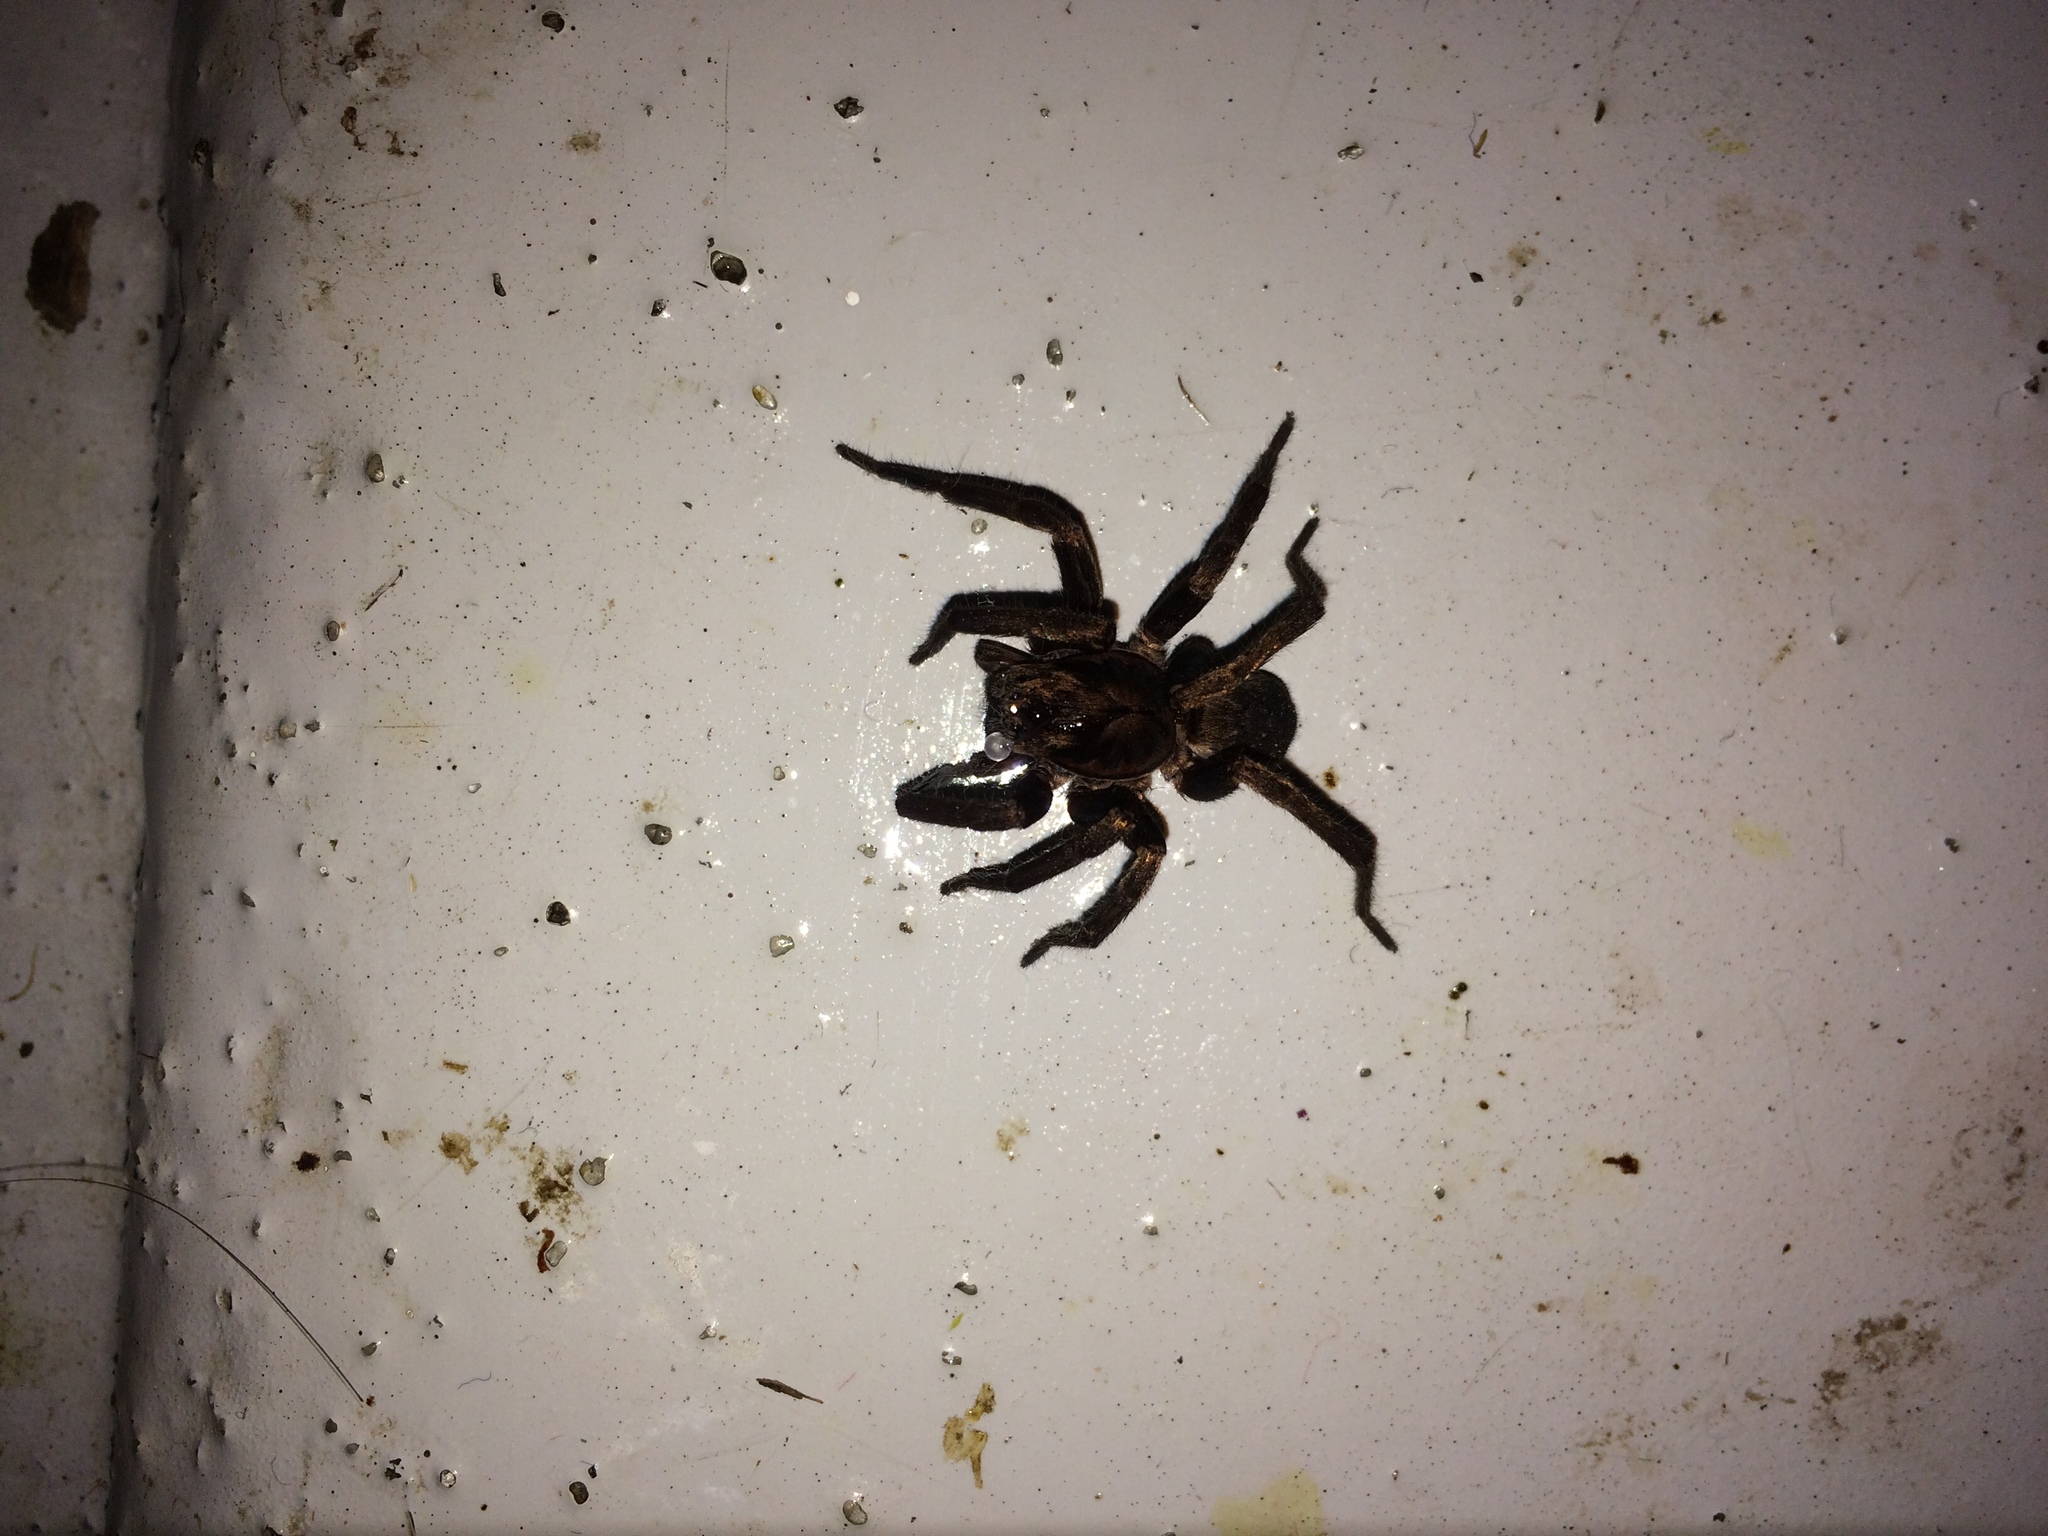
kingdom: Animalia
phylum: Arthropoda
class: Arachnida
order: Araneae
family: Zoropsidae
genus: Uliodon
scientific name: Uliodon
